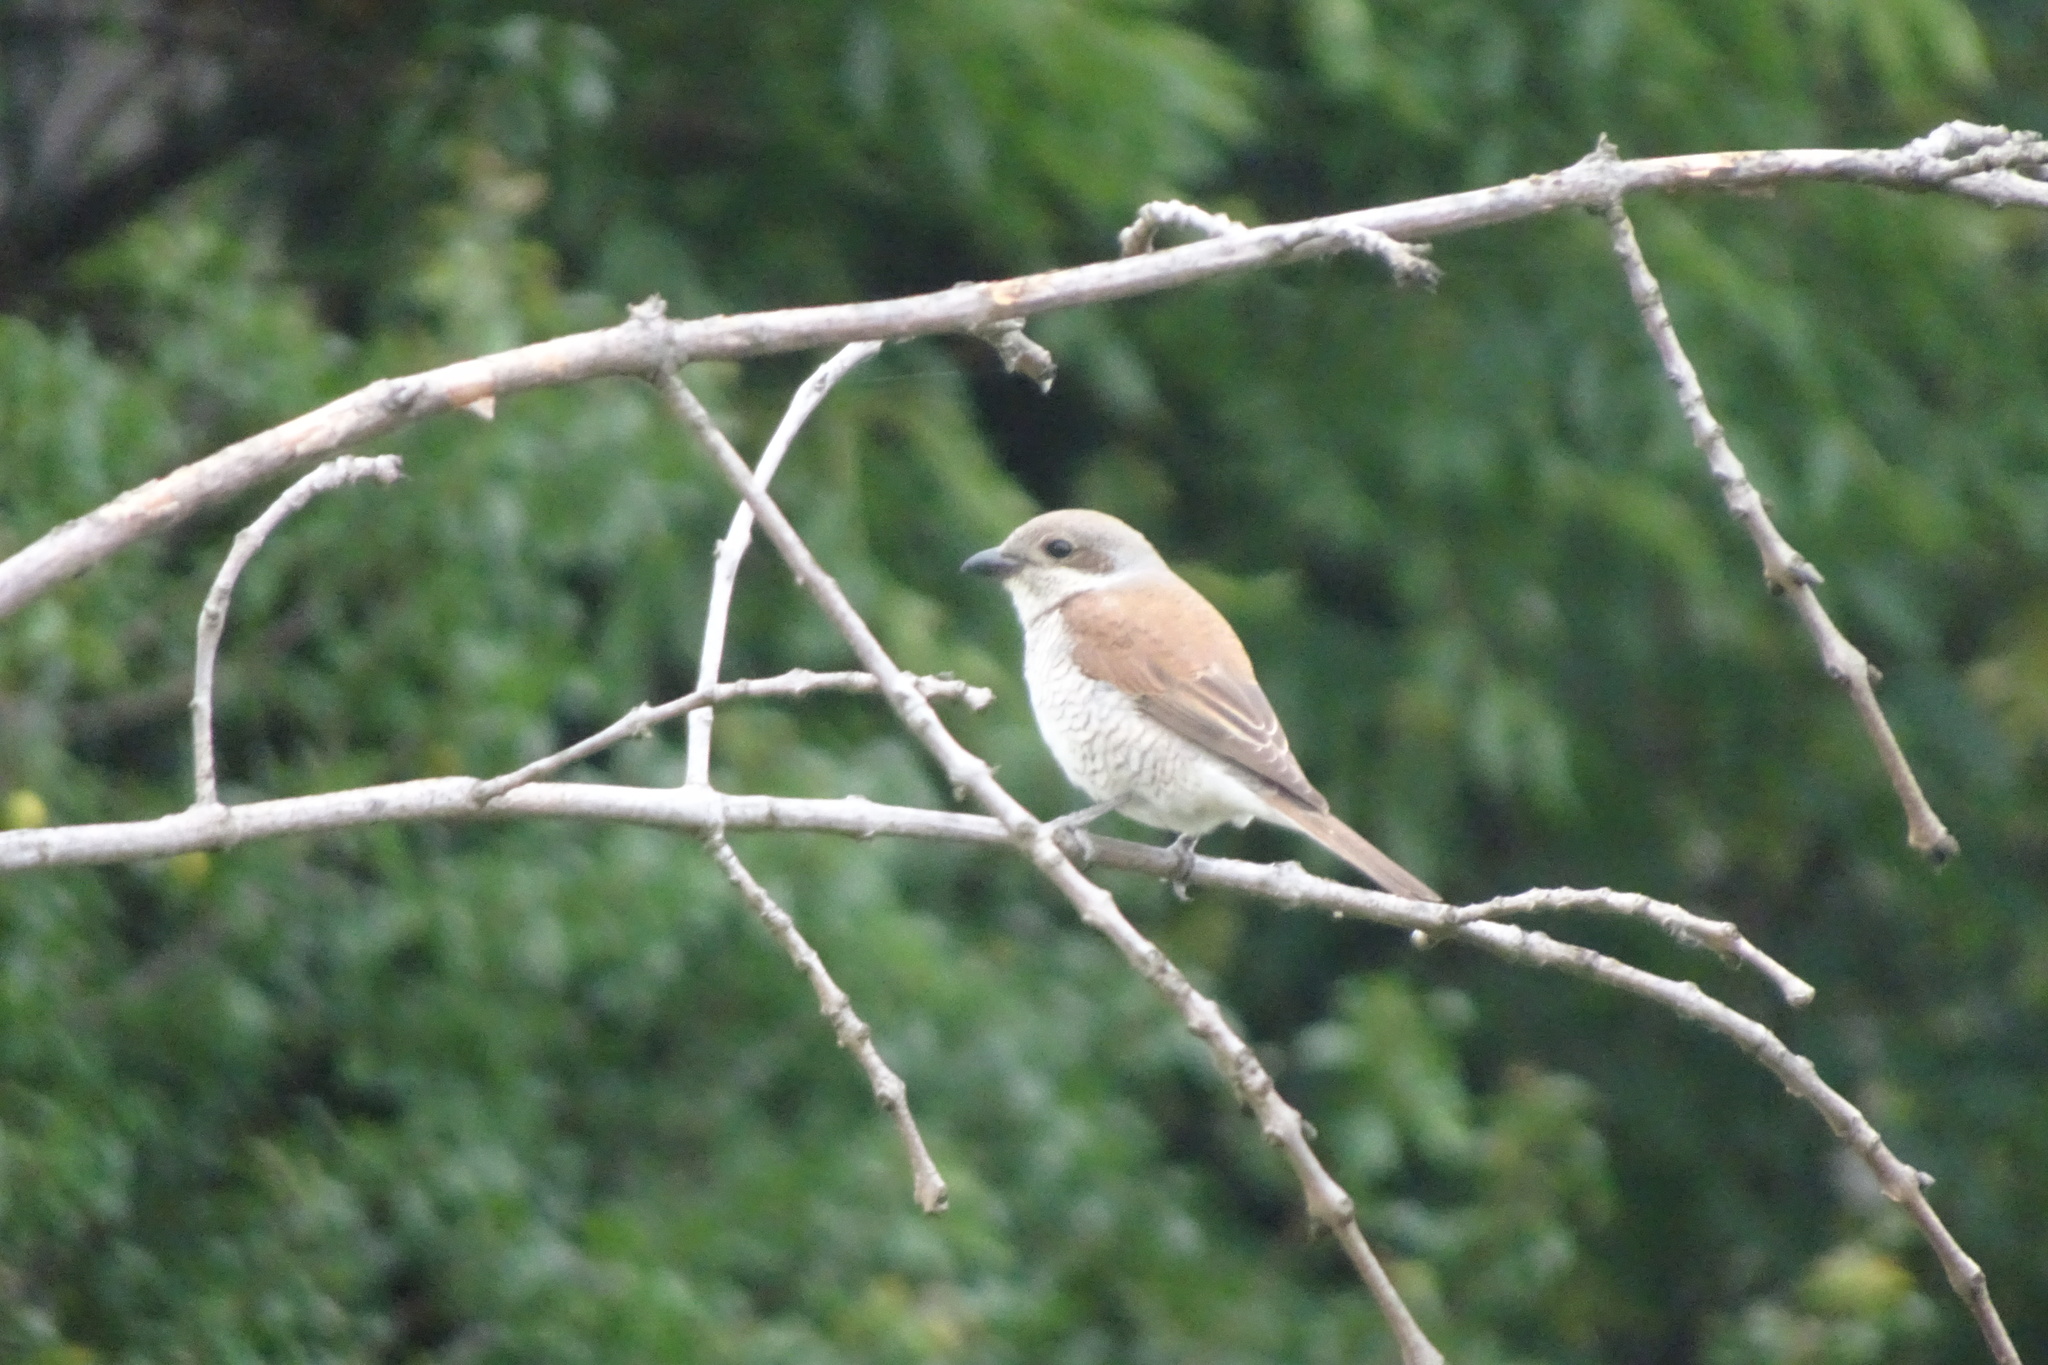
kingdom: Animalia
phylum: Chordata
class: Aves
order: Passeriformes
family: Laniidae
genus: Lanius
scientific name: Lanius collurio
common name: Red-backed shrike
